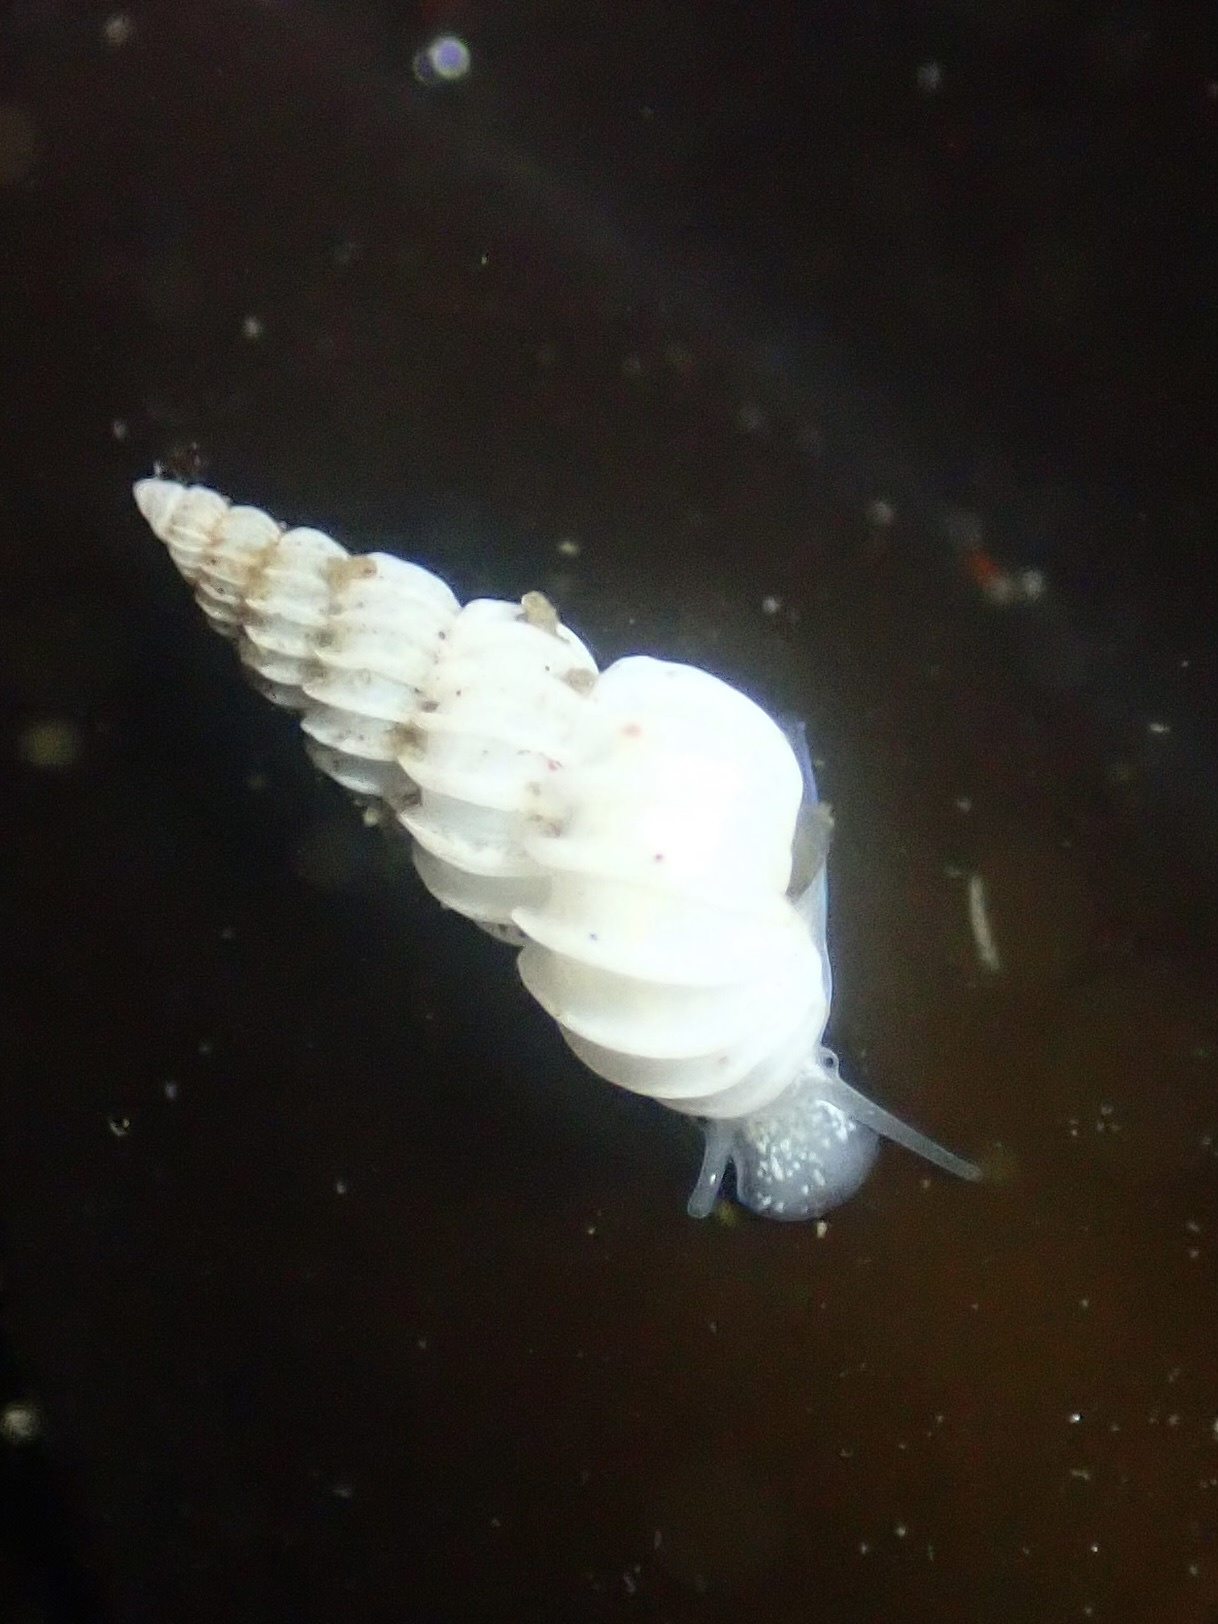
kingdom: Animalia
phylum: Mollusca
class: Gastropoda
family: Epitoniidae
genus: Epitonium
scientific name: Epitonium tinctum
